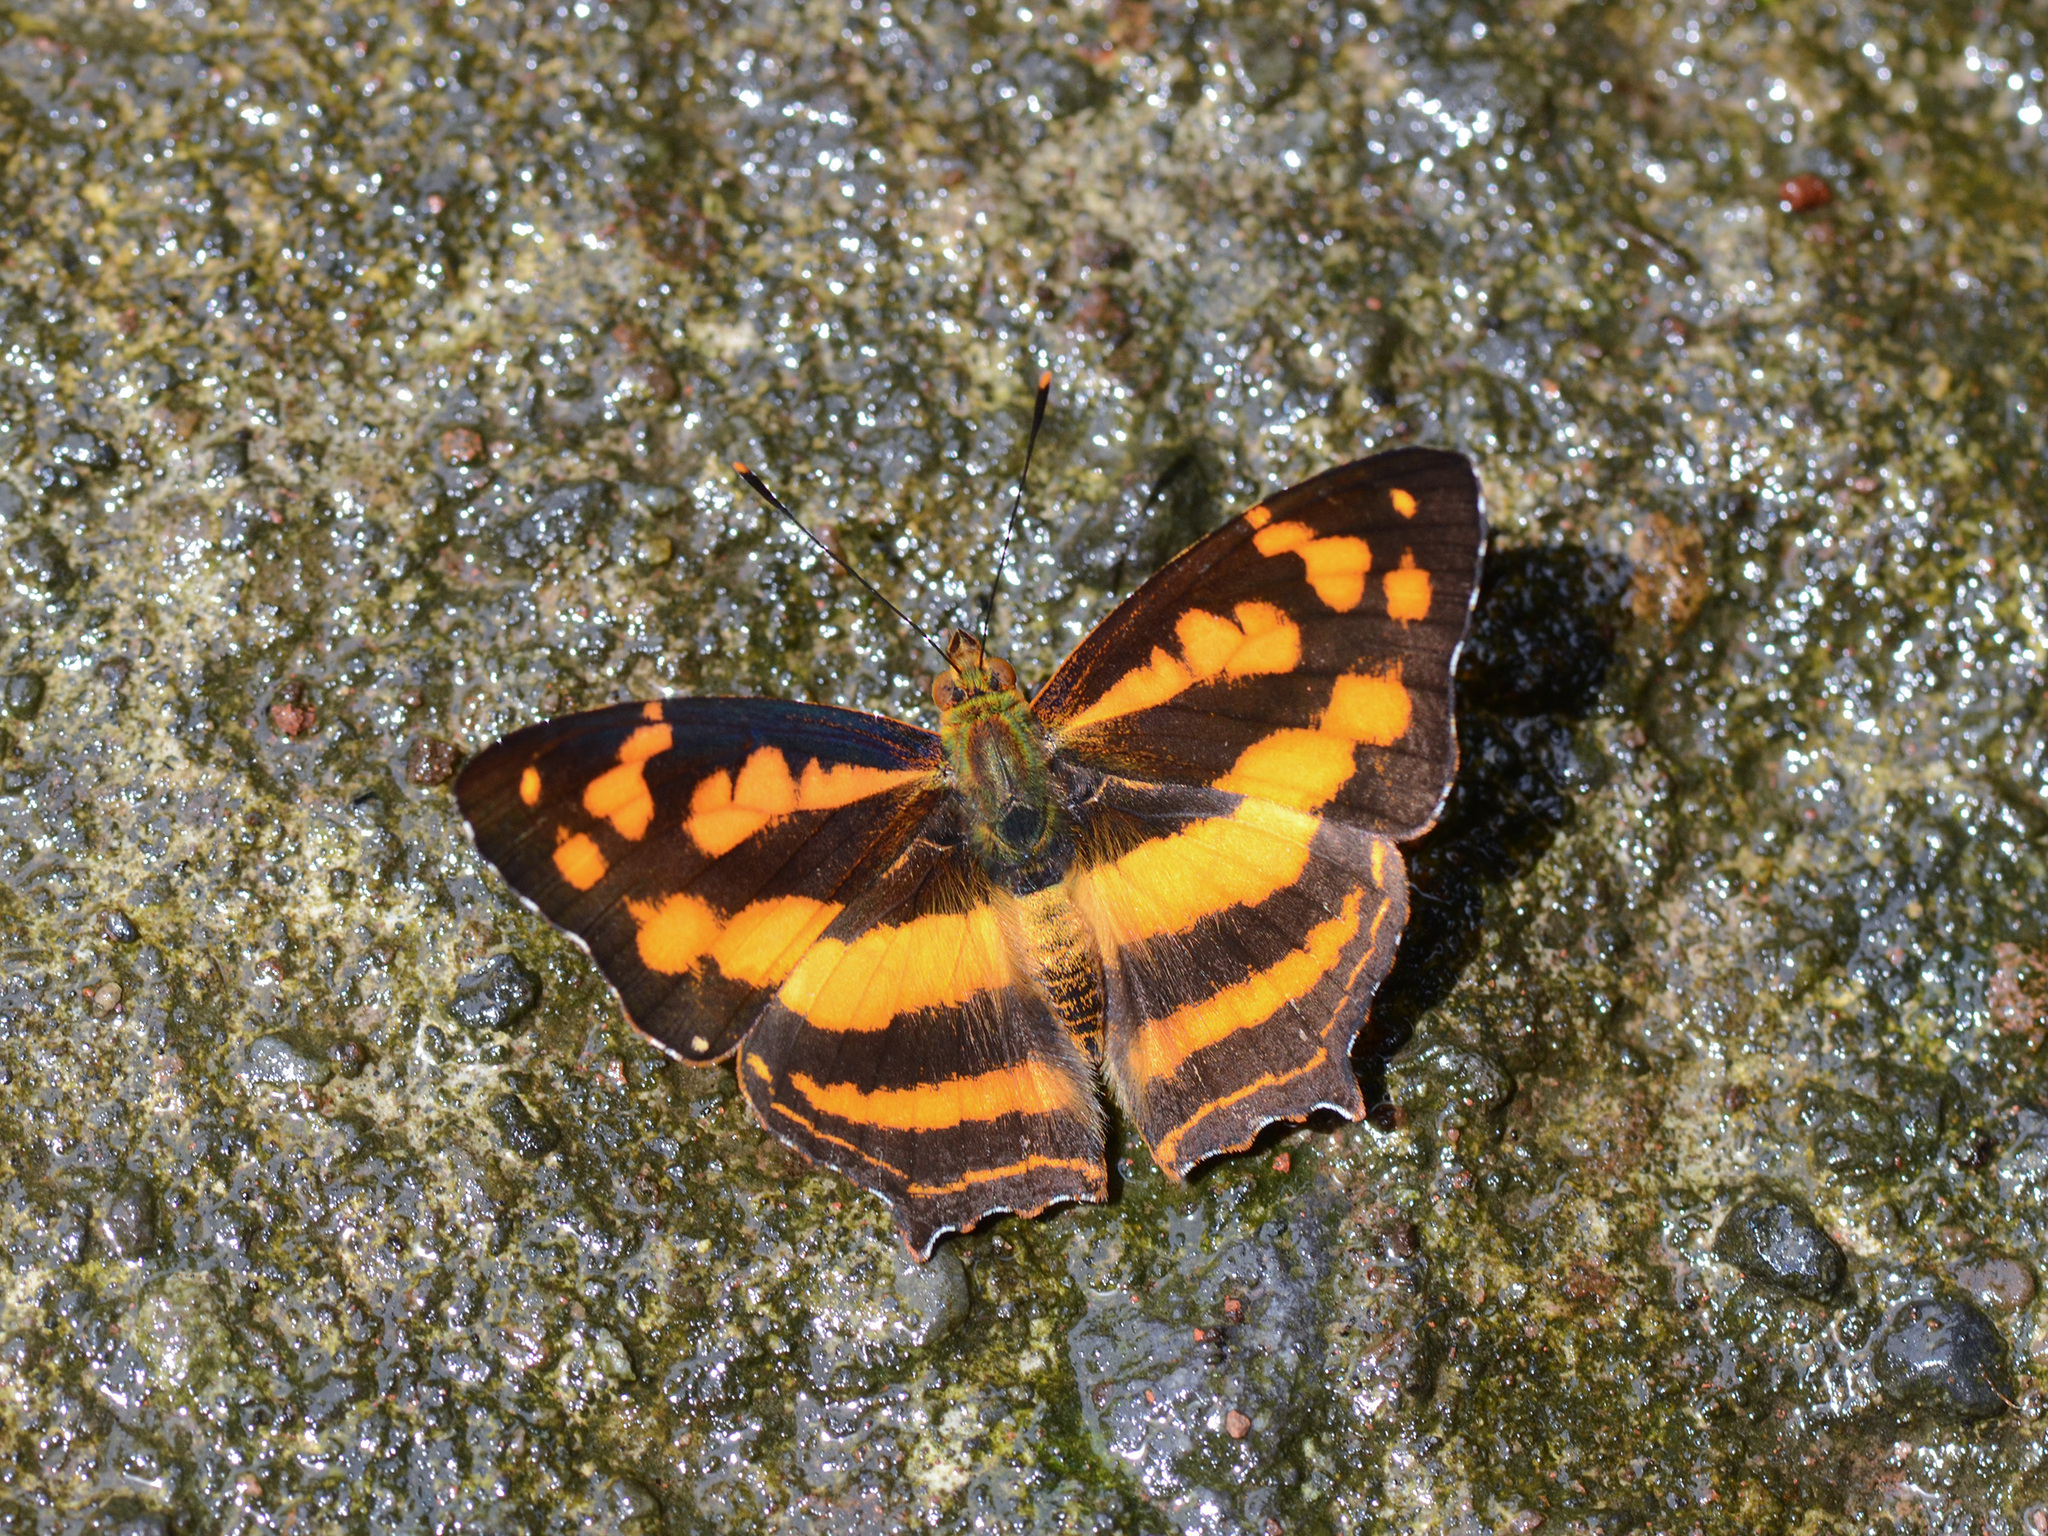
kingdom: Animalia
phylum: Arthropoda
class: Insecta
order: Lepidoptera
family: Nymphalidae
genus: Symbrenthia
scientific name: Symbrenthia hippoclus
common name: Common jester
